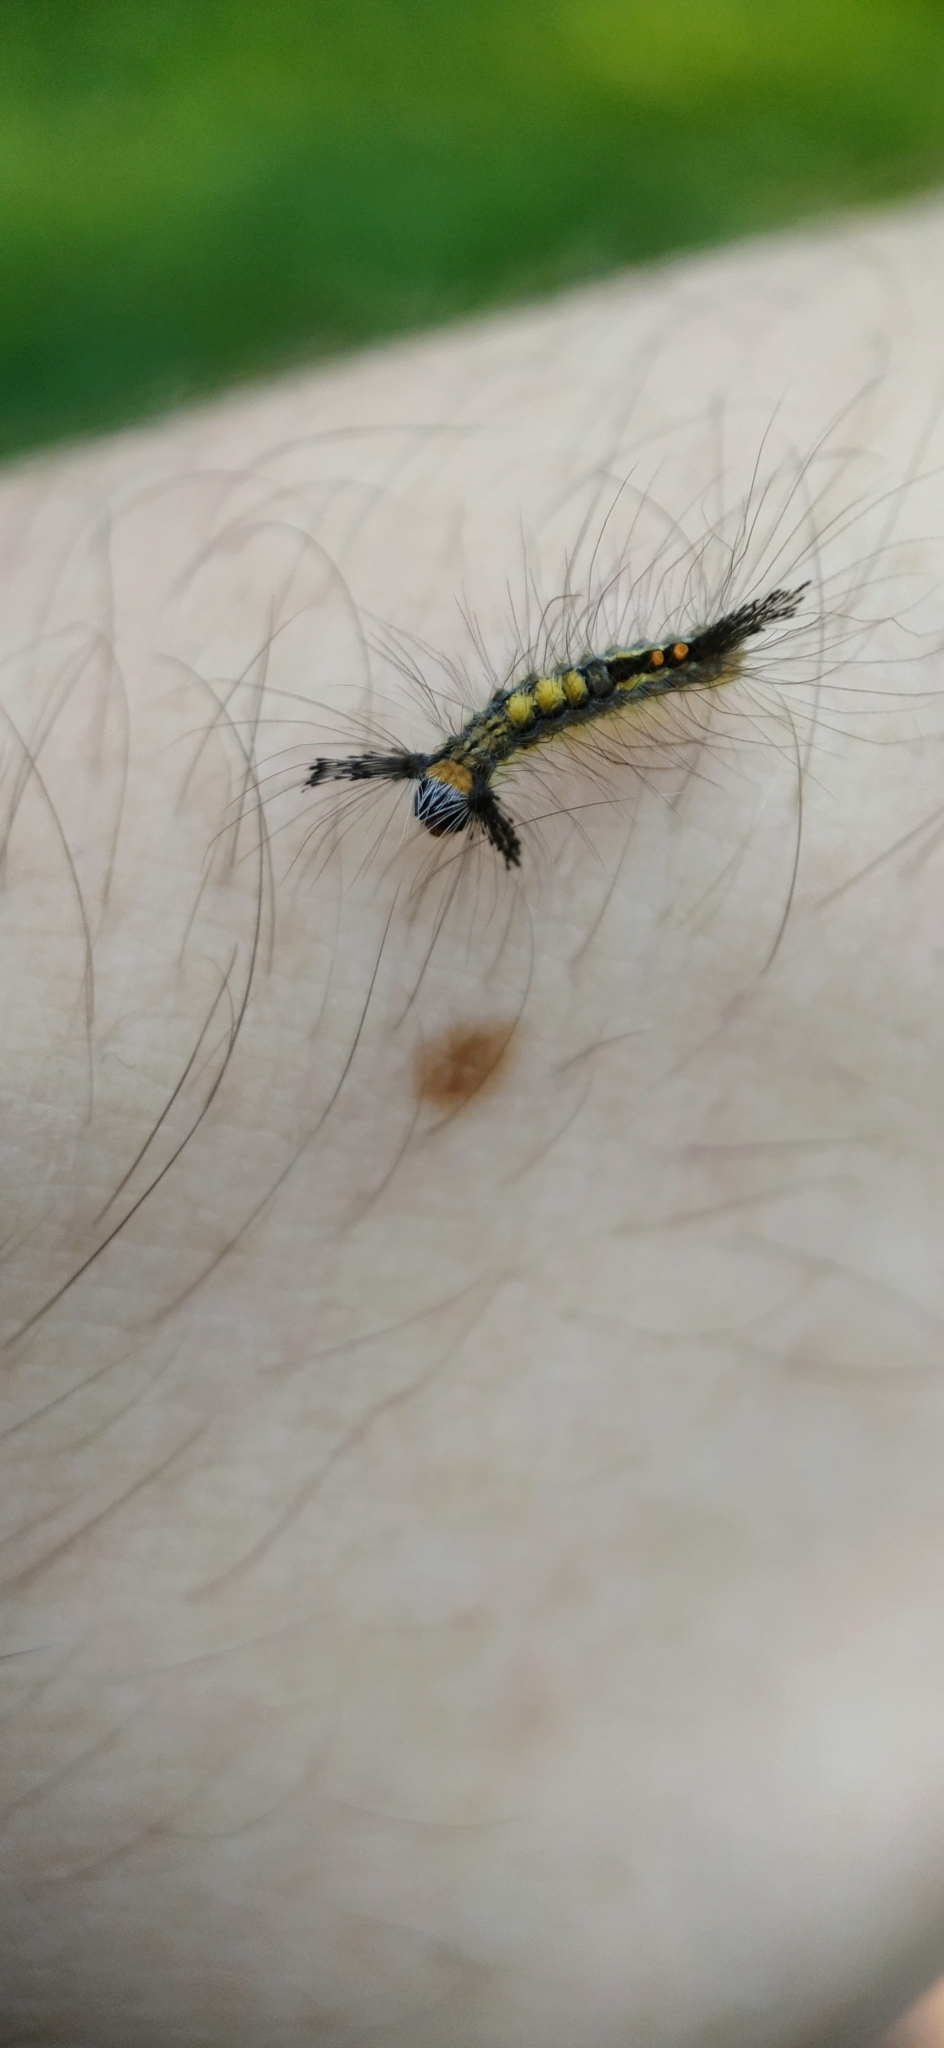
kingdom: Animalia
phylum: Arthropoda
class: Insecta
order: Lepidoptera
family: Erebidae
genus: Orgyia
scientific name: Orgyia leucostigma
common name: White-marked tussock moth
